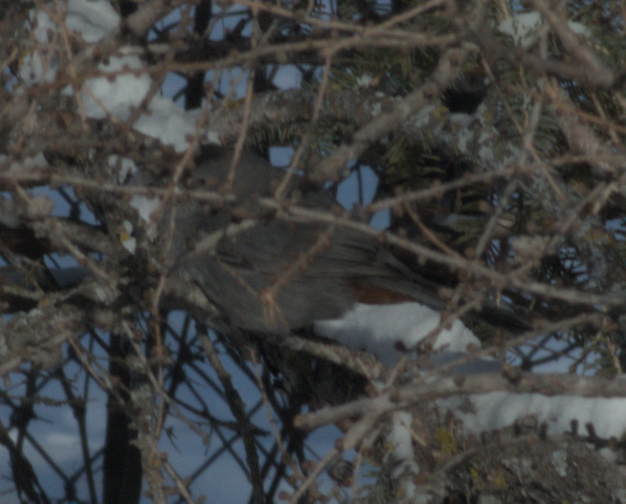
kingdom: Animalia
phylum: Chordata
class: Aves
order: Passeriformes
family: Mimidae
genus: Dumetella
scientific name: Dumetella carolinensis
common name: Gray catbird
